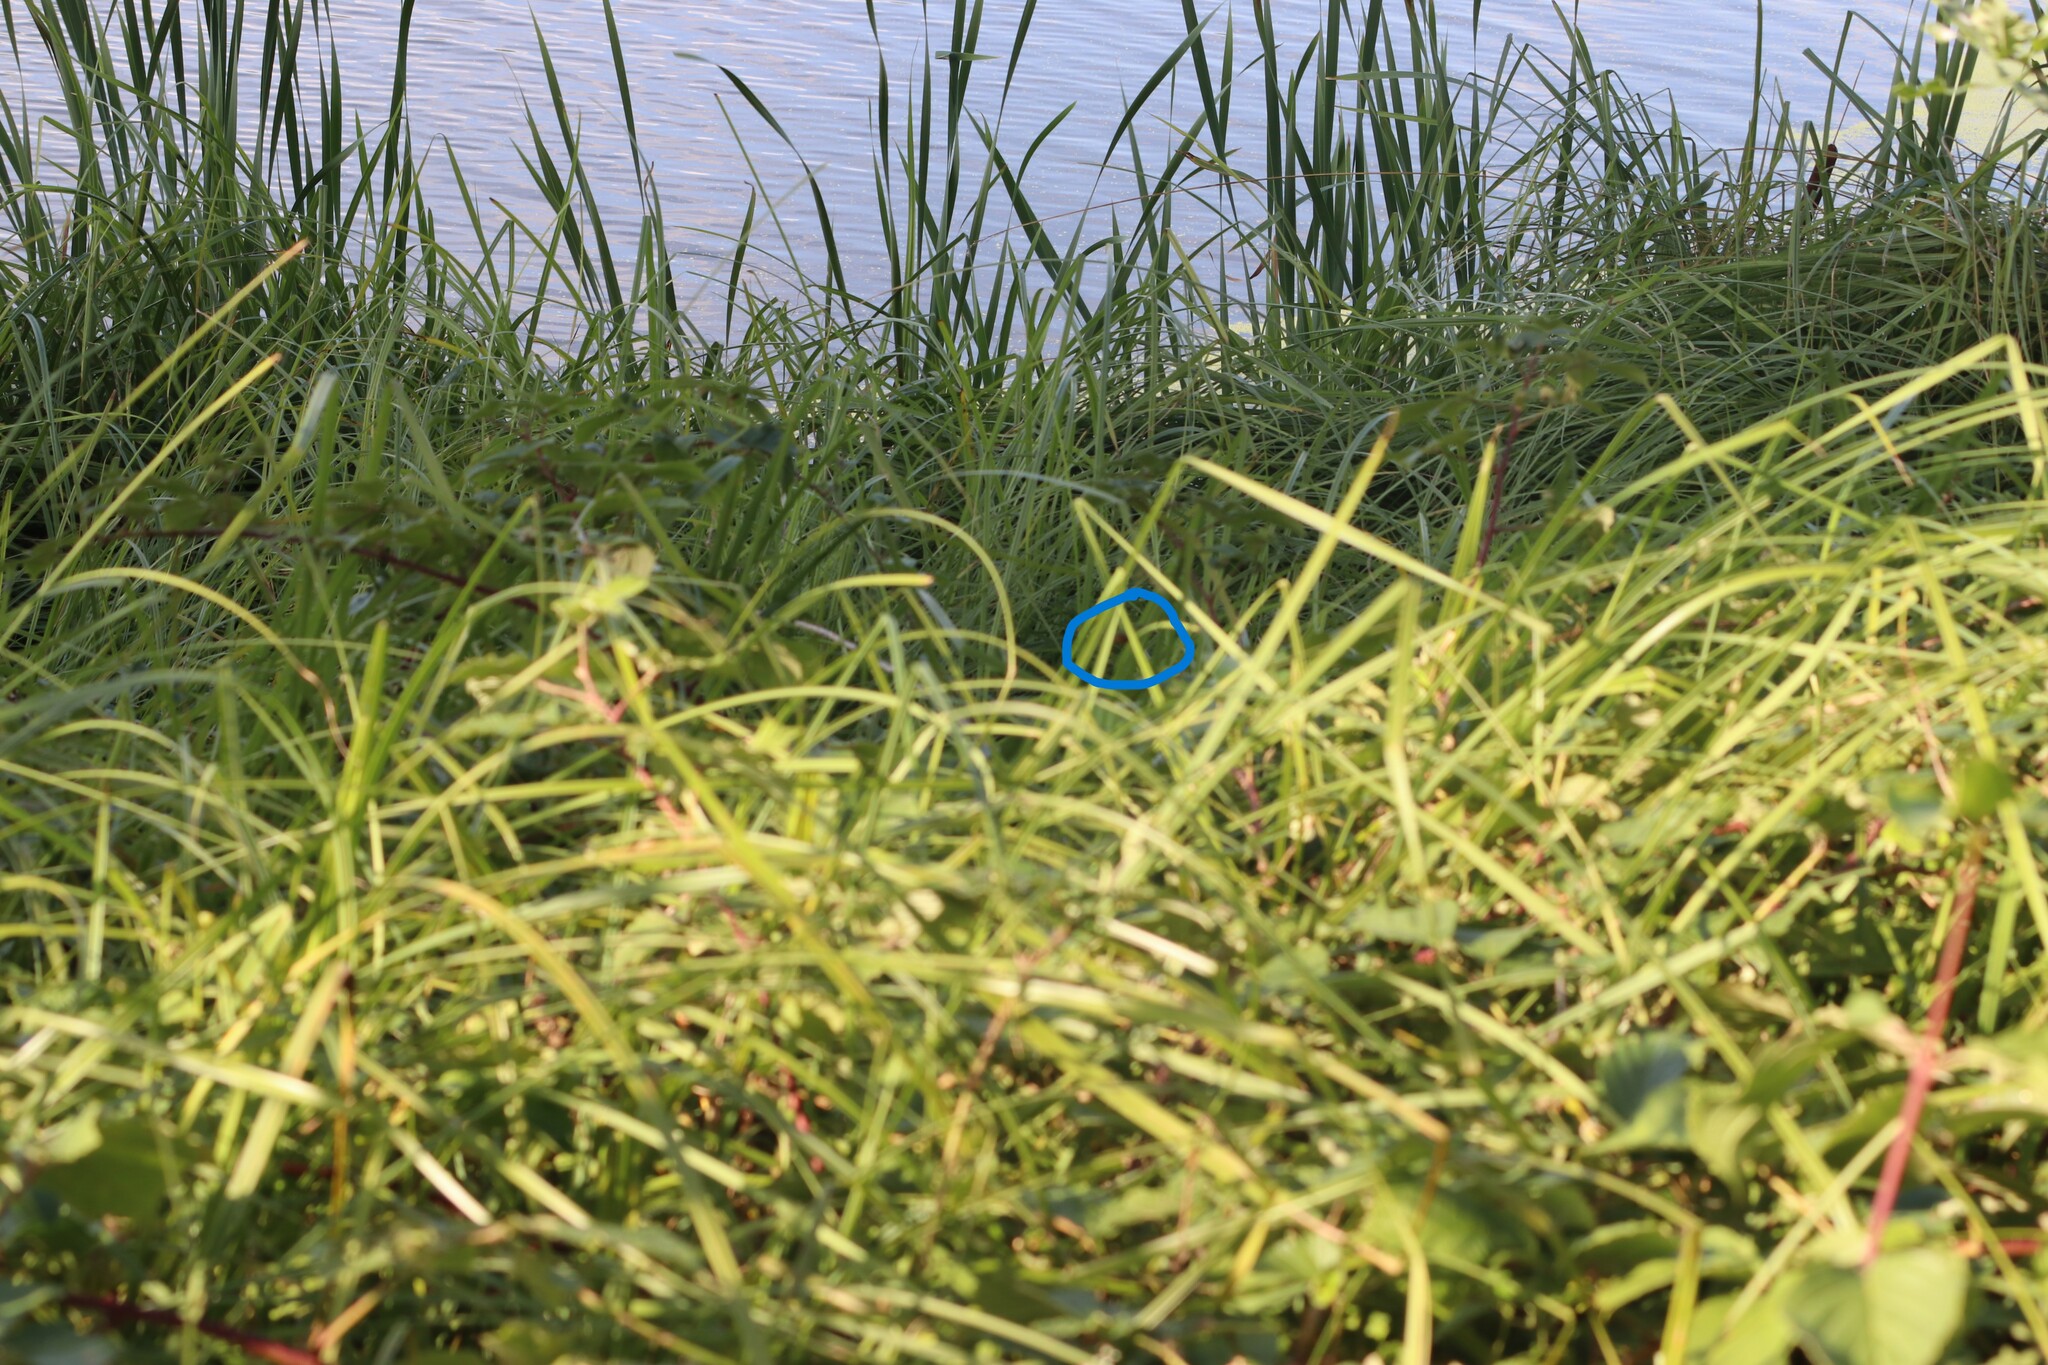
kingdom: Animalia
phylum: Arthropoda
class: Insecta
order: Hymenoptera
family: Vespidae
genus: Vespa
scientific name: Vespa velutina
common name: Asian hornet
